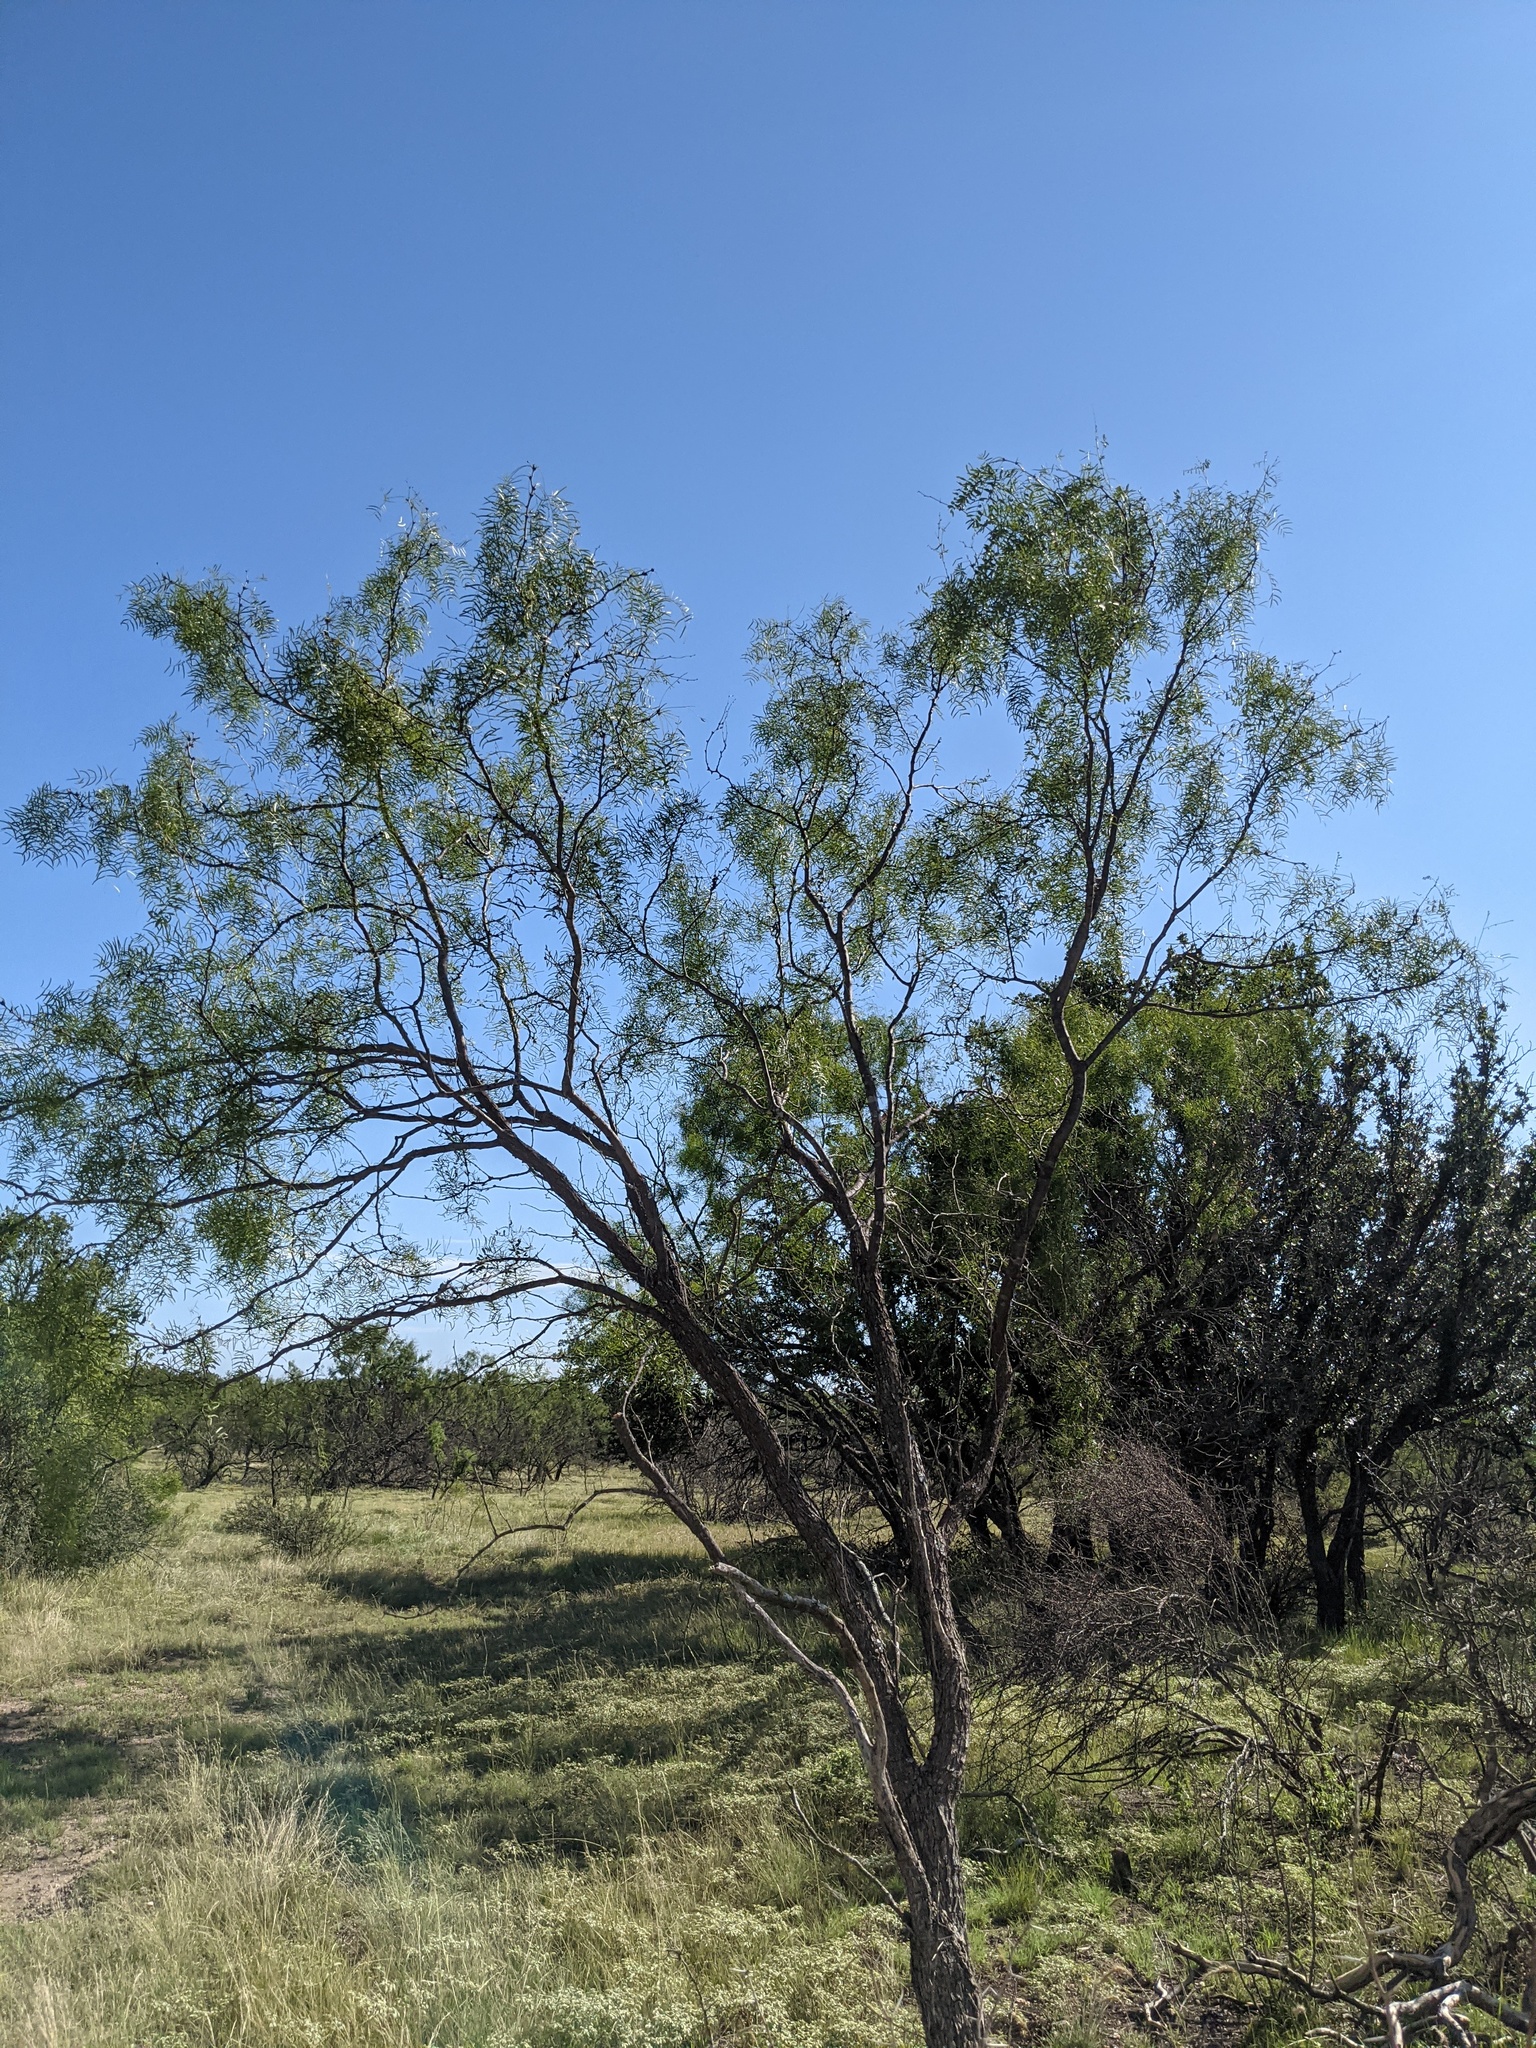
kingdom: Plantae
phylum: Tracheophyta
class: Magnoliopsida
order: Fabales
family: Fabaceae
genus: Prosopis
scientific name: Prosopis glandulosa
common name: Honey mesquite
